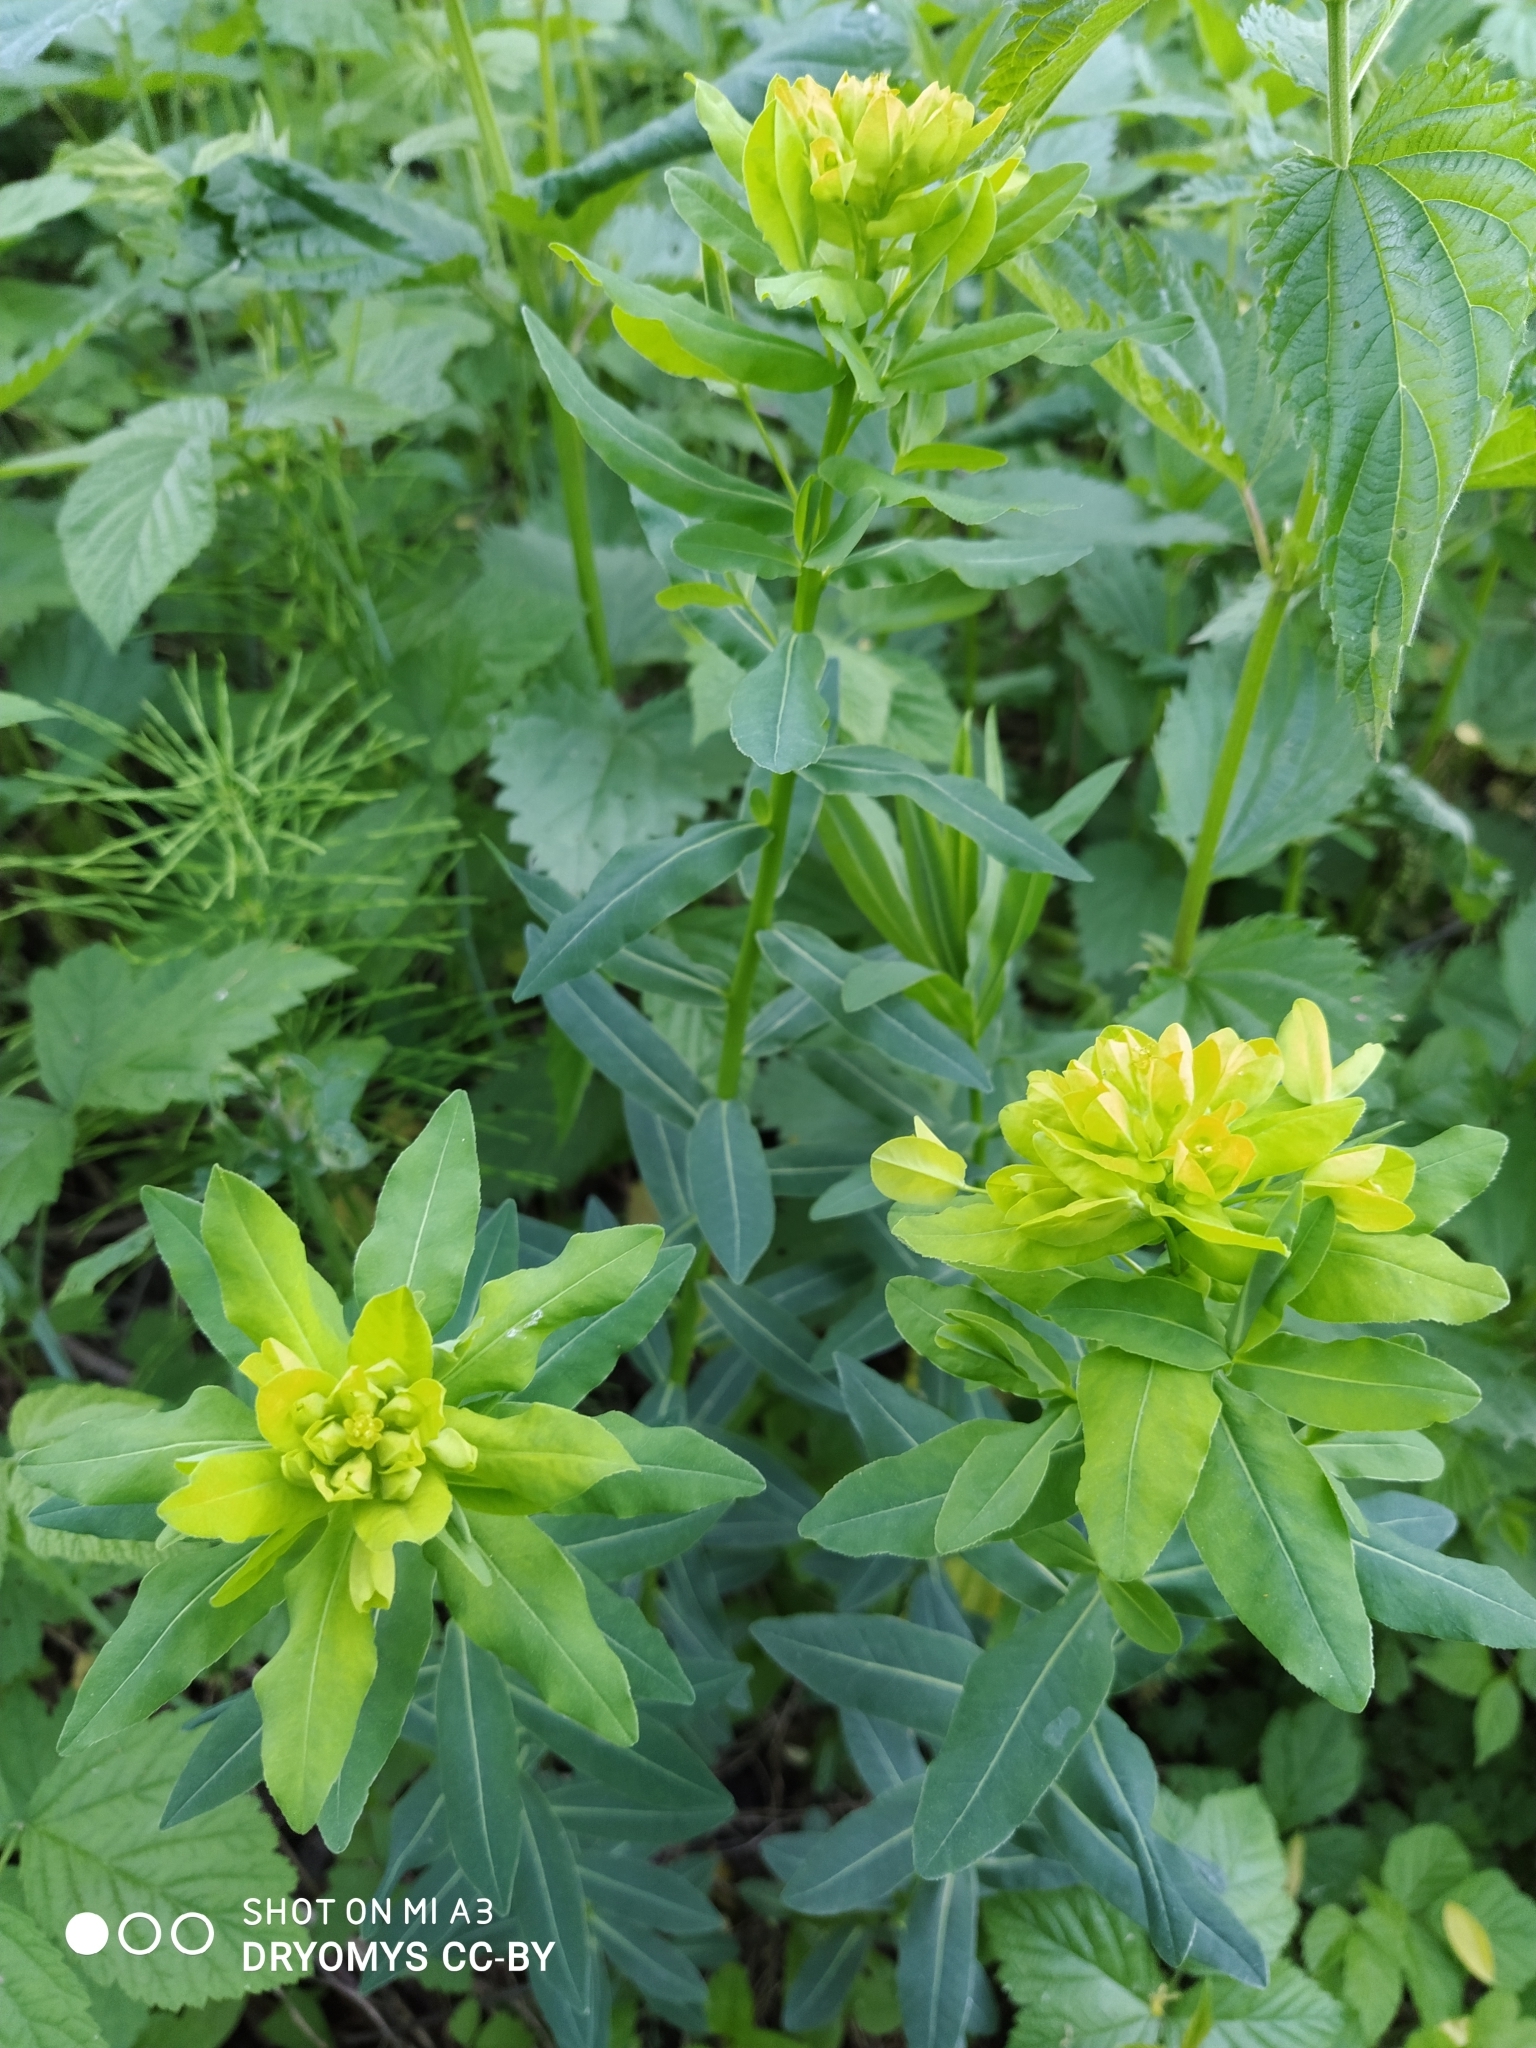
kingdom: Plantae
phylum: Tracheophyta
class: Magnoliopsida
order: Malpighiales
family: Euphorbiaceae
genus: Euphorbia
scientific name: Euphorbia semivillosa
